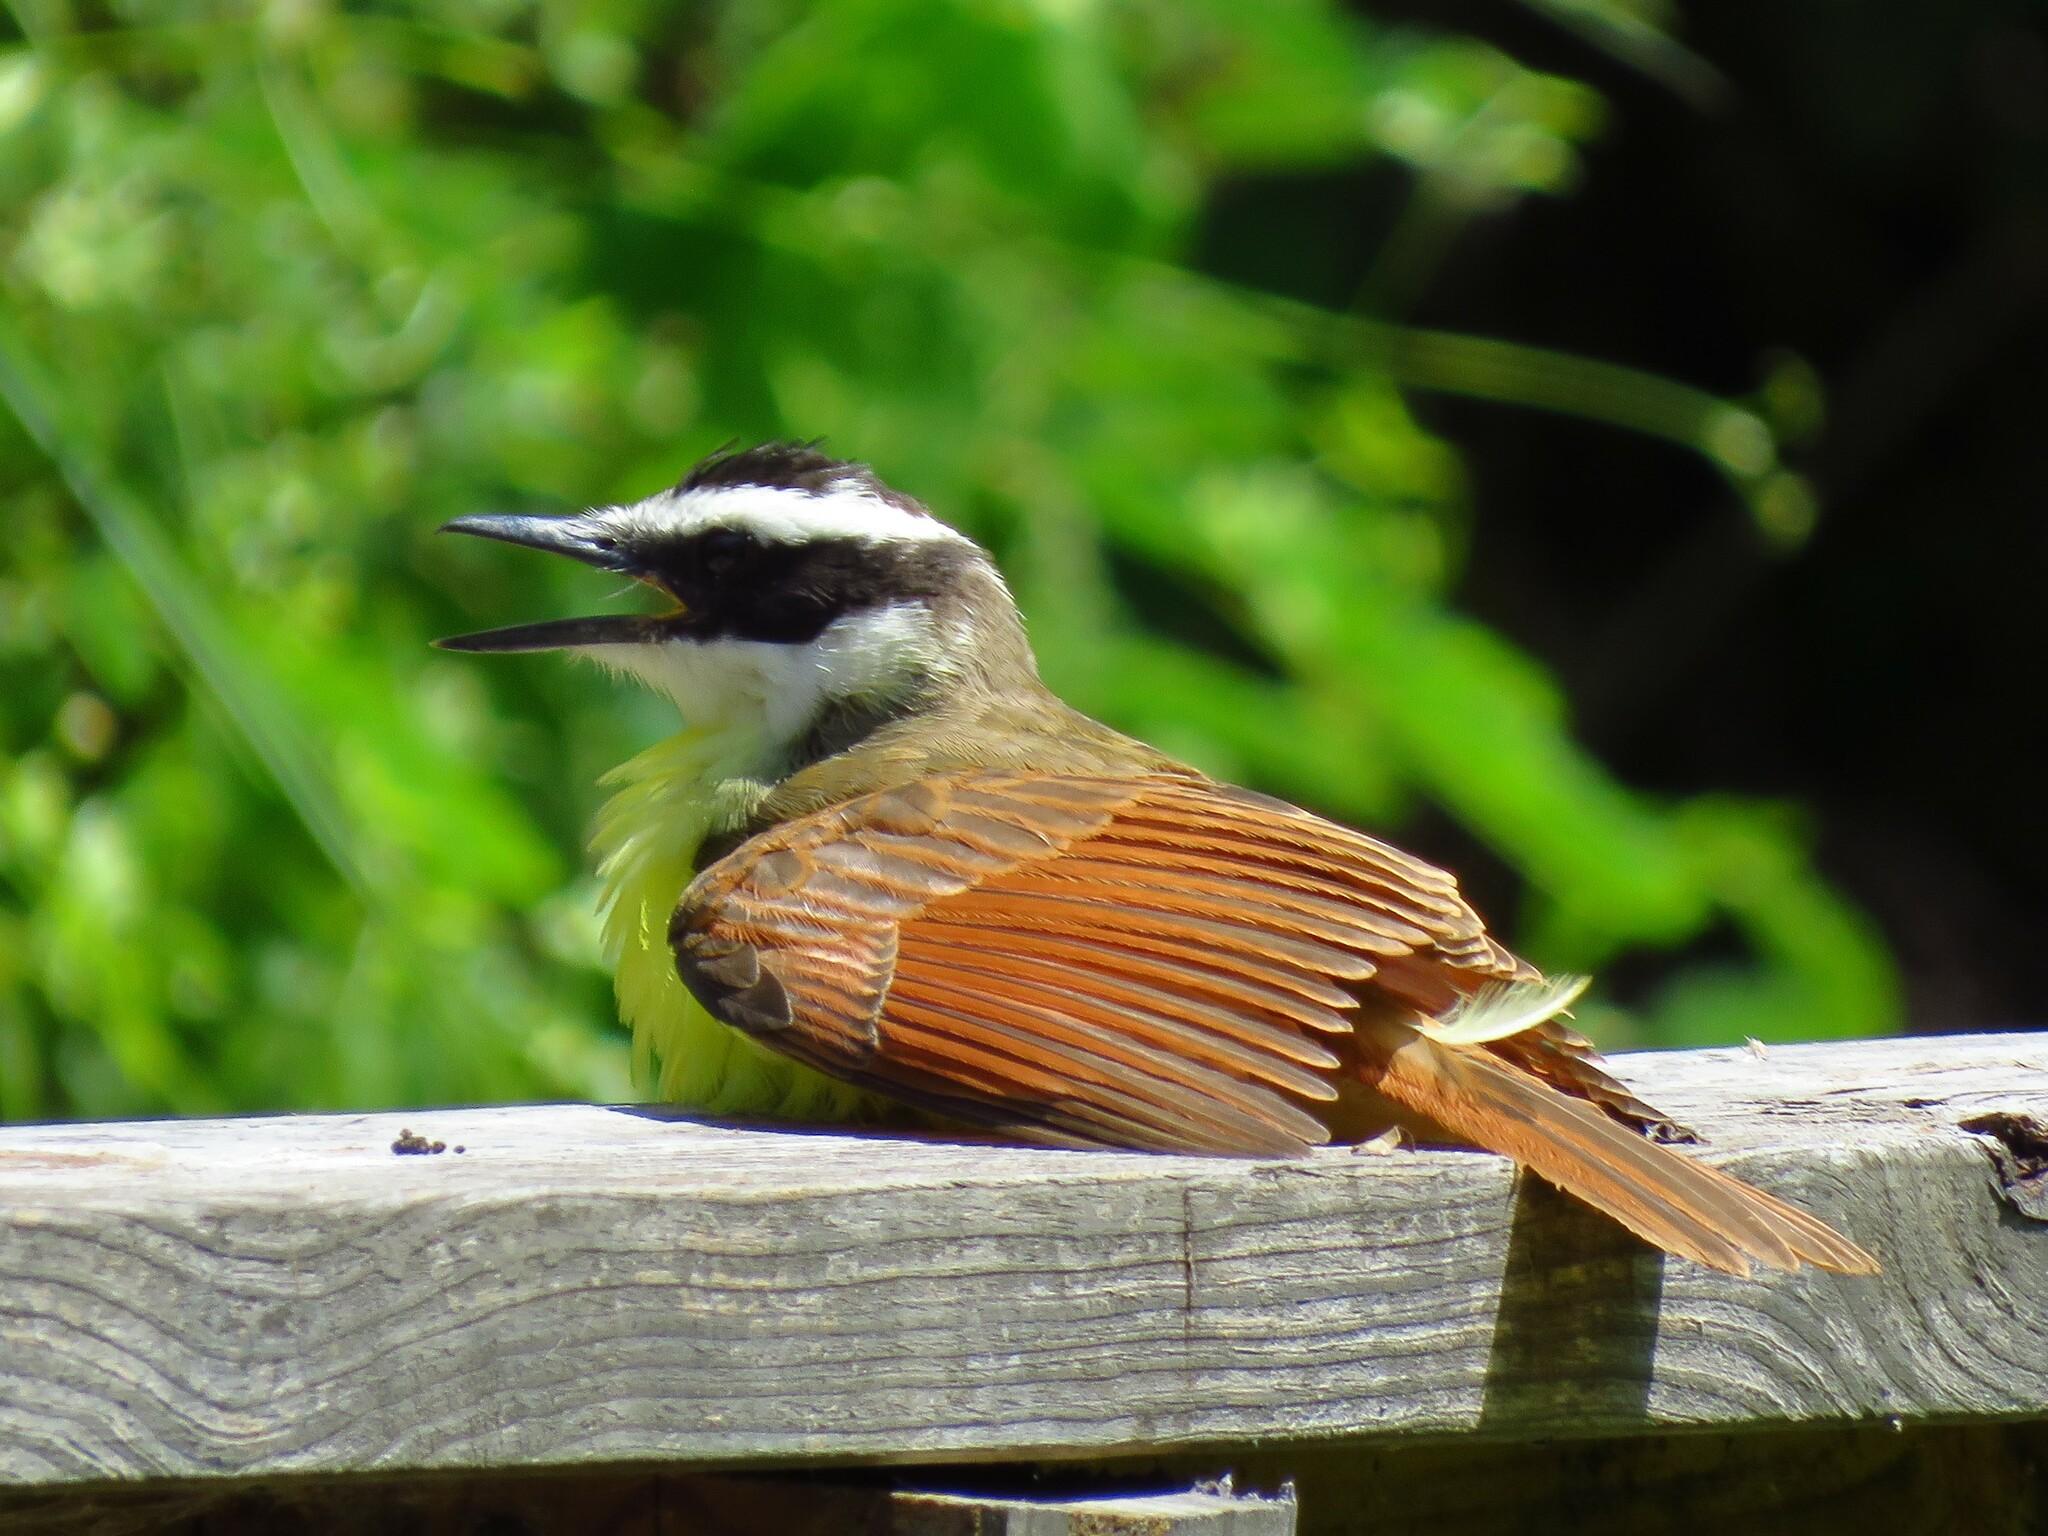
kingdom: Animalia
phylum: Chordata
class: Aves
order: Passeriformes
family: Tyrannidae
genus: Pitangus
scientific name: Pitangus sulphuratus
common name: Great kiskadee
